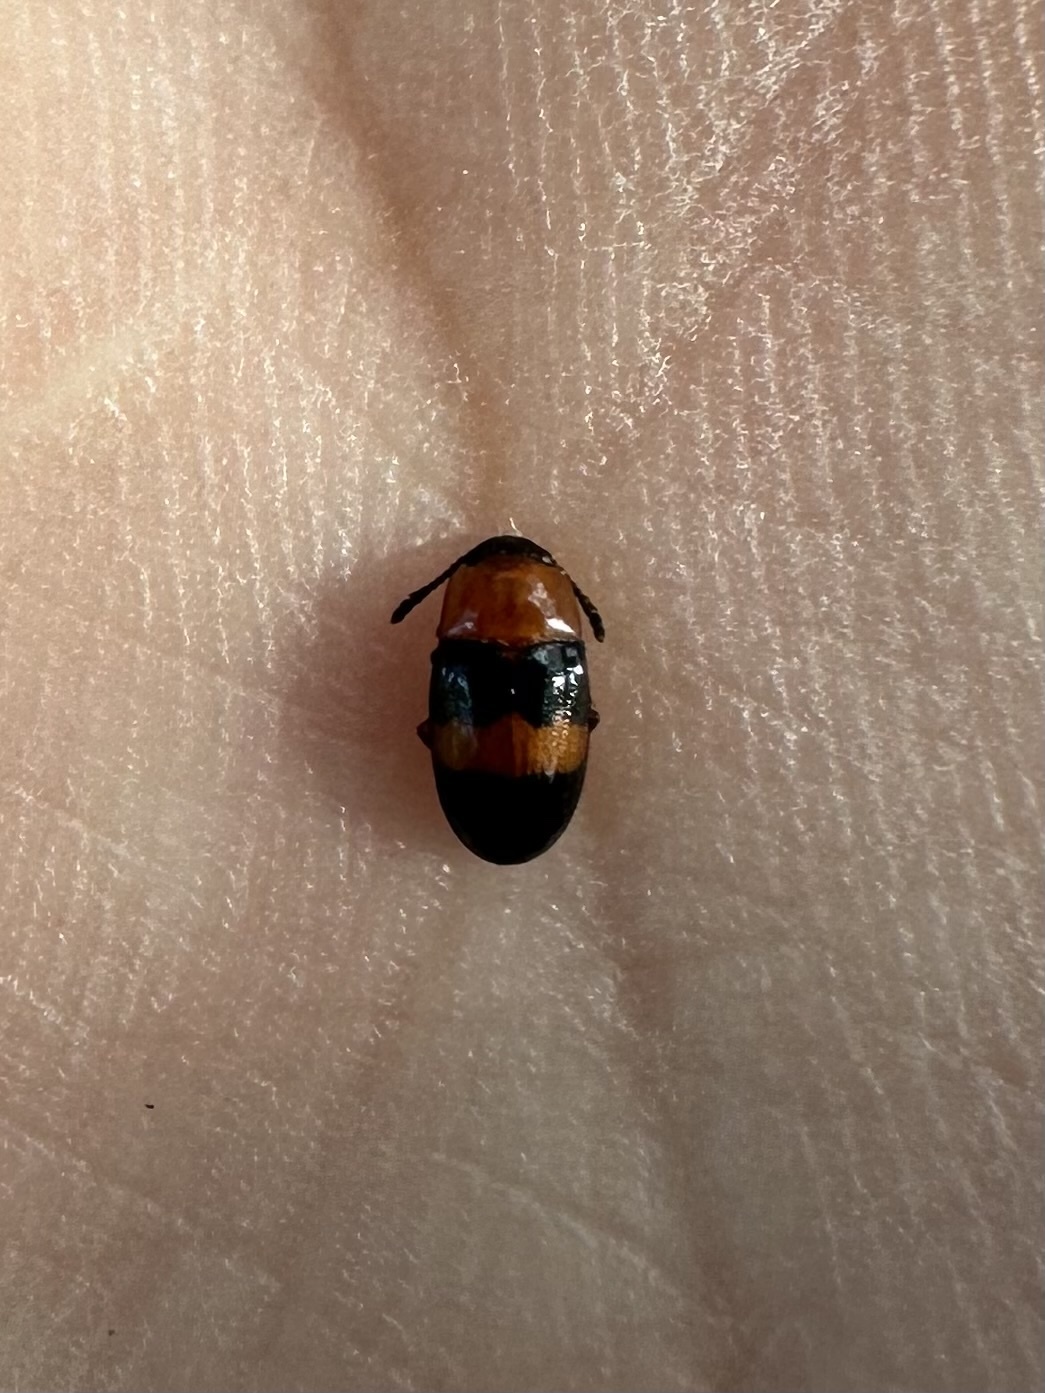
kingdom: Animalia
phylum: Arthropoda
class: Insecta
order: Coleoptera
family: Erotylidae
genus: Triplax
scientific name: Triplax festiva
